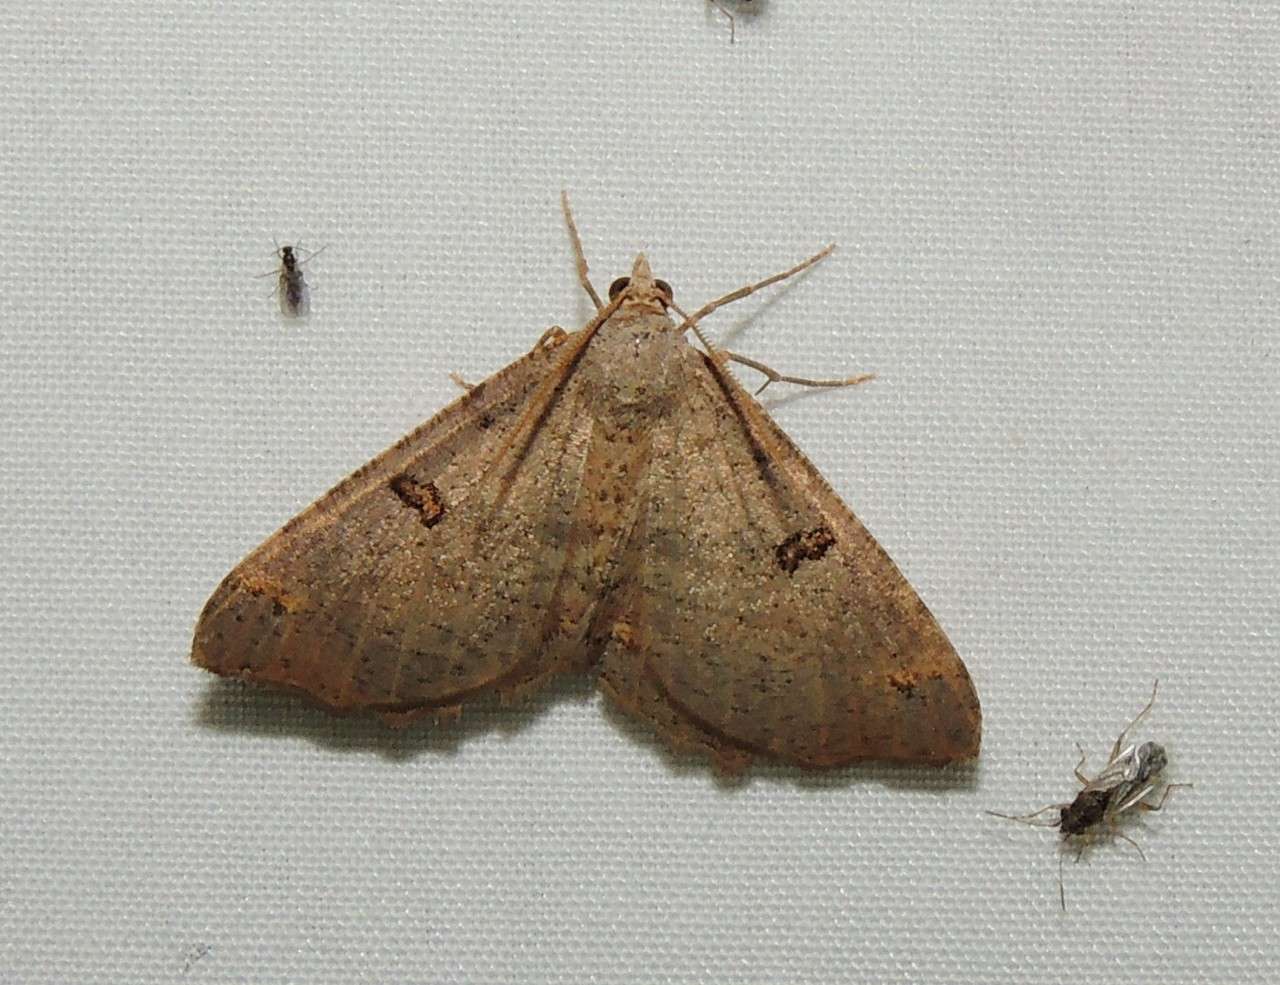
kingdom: Animalia
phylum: Arthropoda
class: Insecta
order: Lepidoptera
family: Geometridae
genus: Dissomorphia
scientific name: Dissomorphia australiaria
